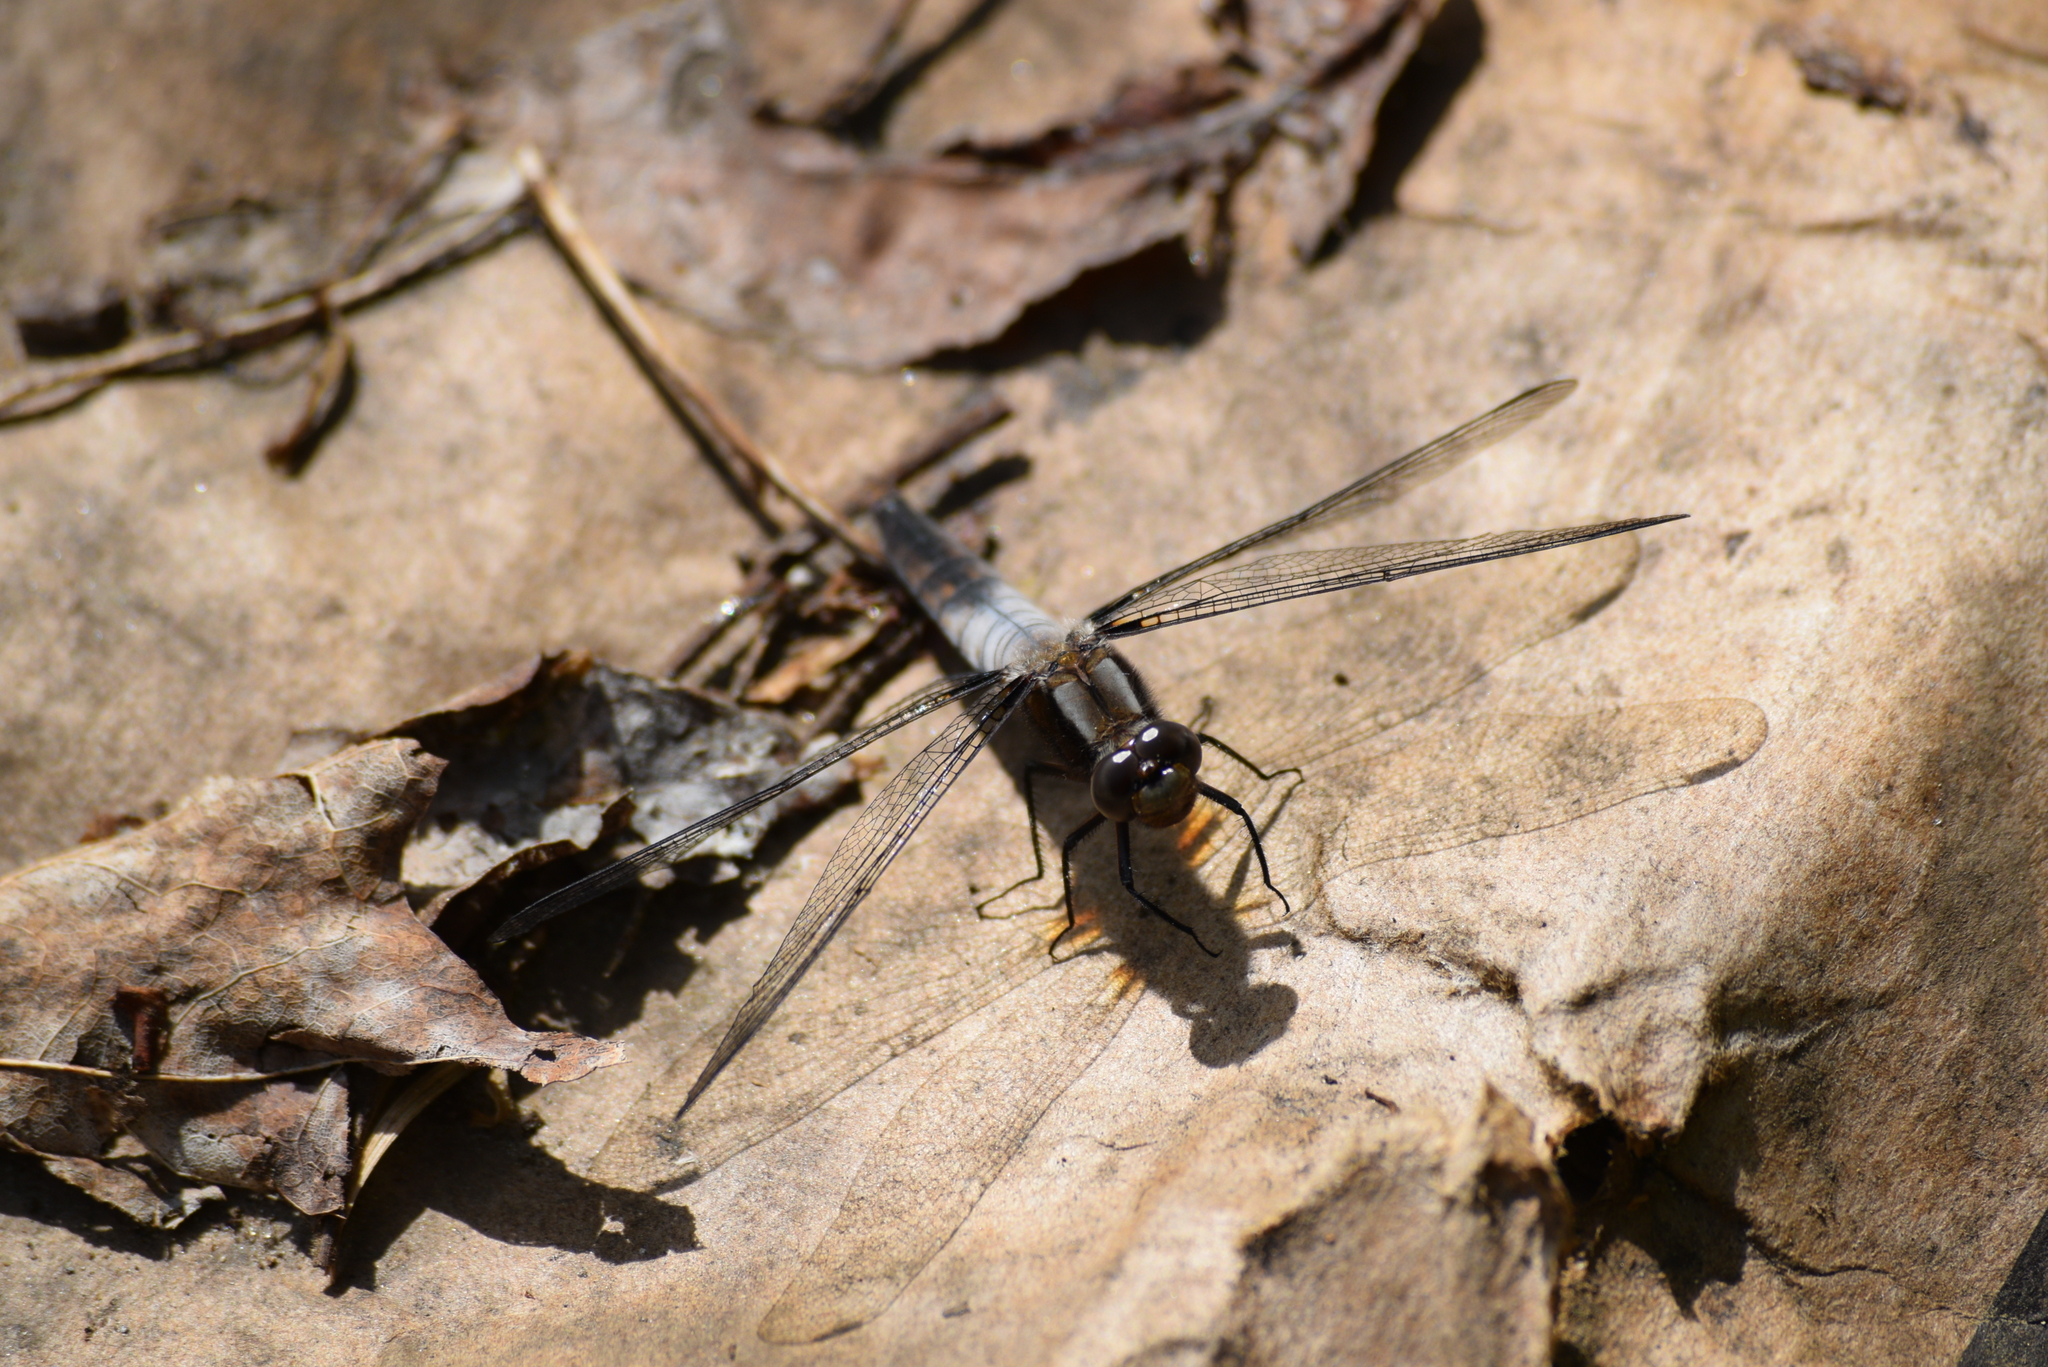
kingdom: Animalia
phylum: Arthropoda
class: Insecta
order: Odonata
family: Libellulidae
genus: Ladona
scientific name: Ladona julia
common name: Chalk-fronted corporal
